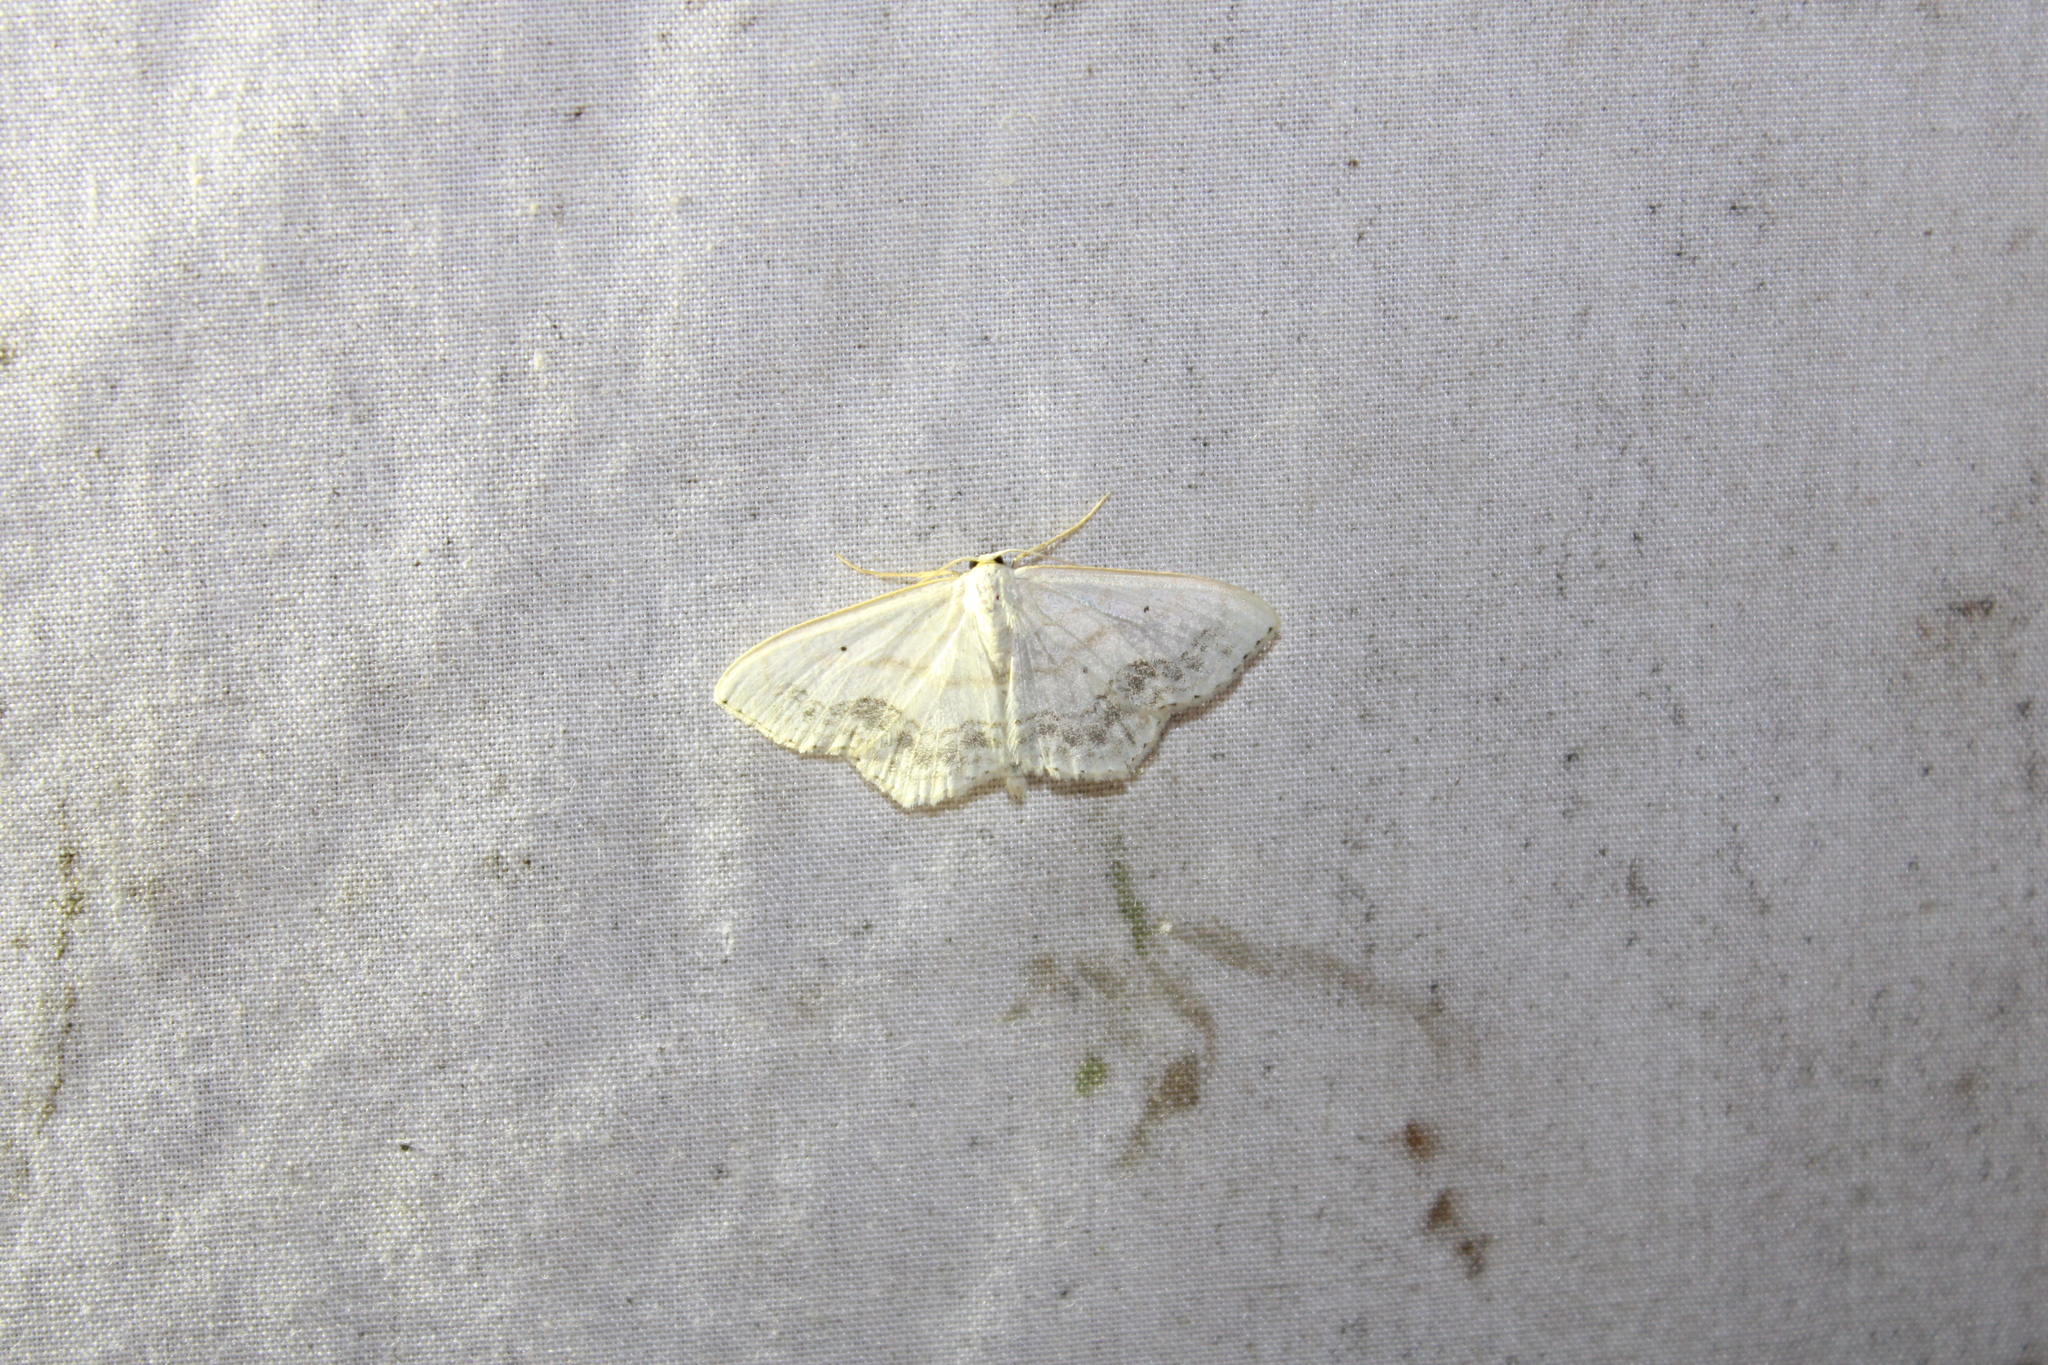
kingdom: Animalia
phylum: Arthropoda
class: Insecta
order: Lepidoptera
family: Geometridae
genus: Scopula
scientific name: Scopula limboundata
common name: Large lace border
